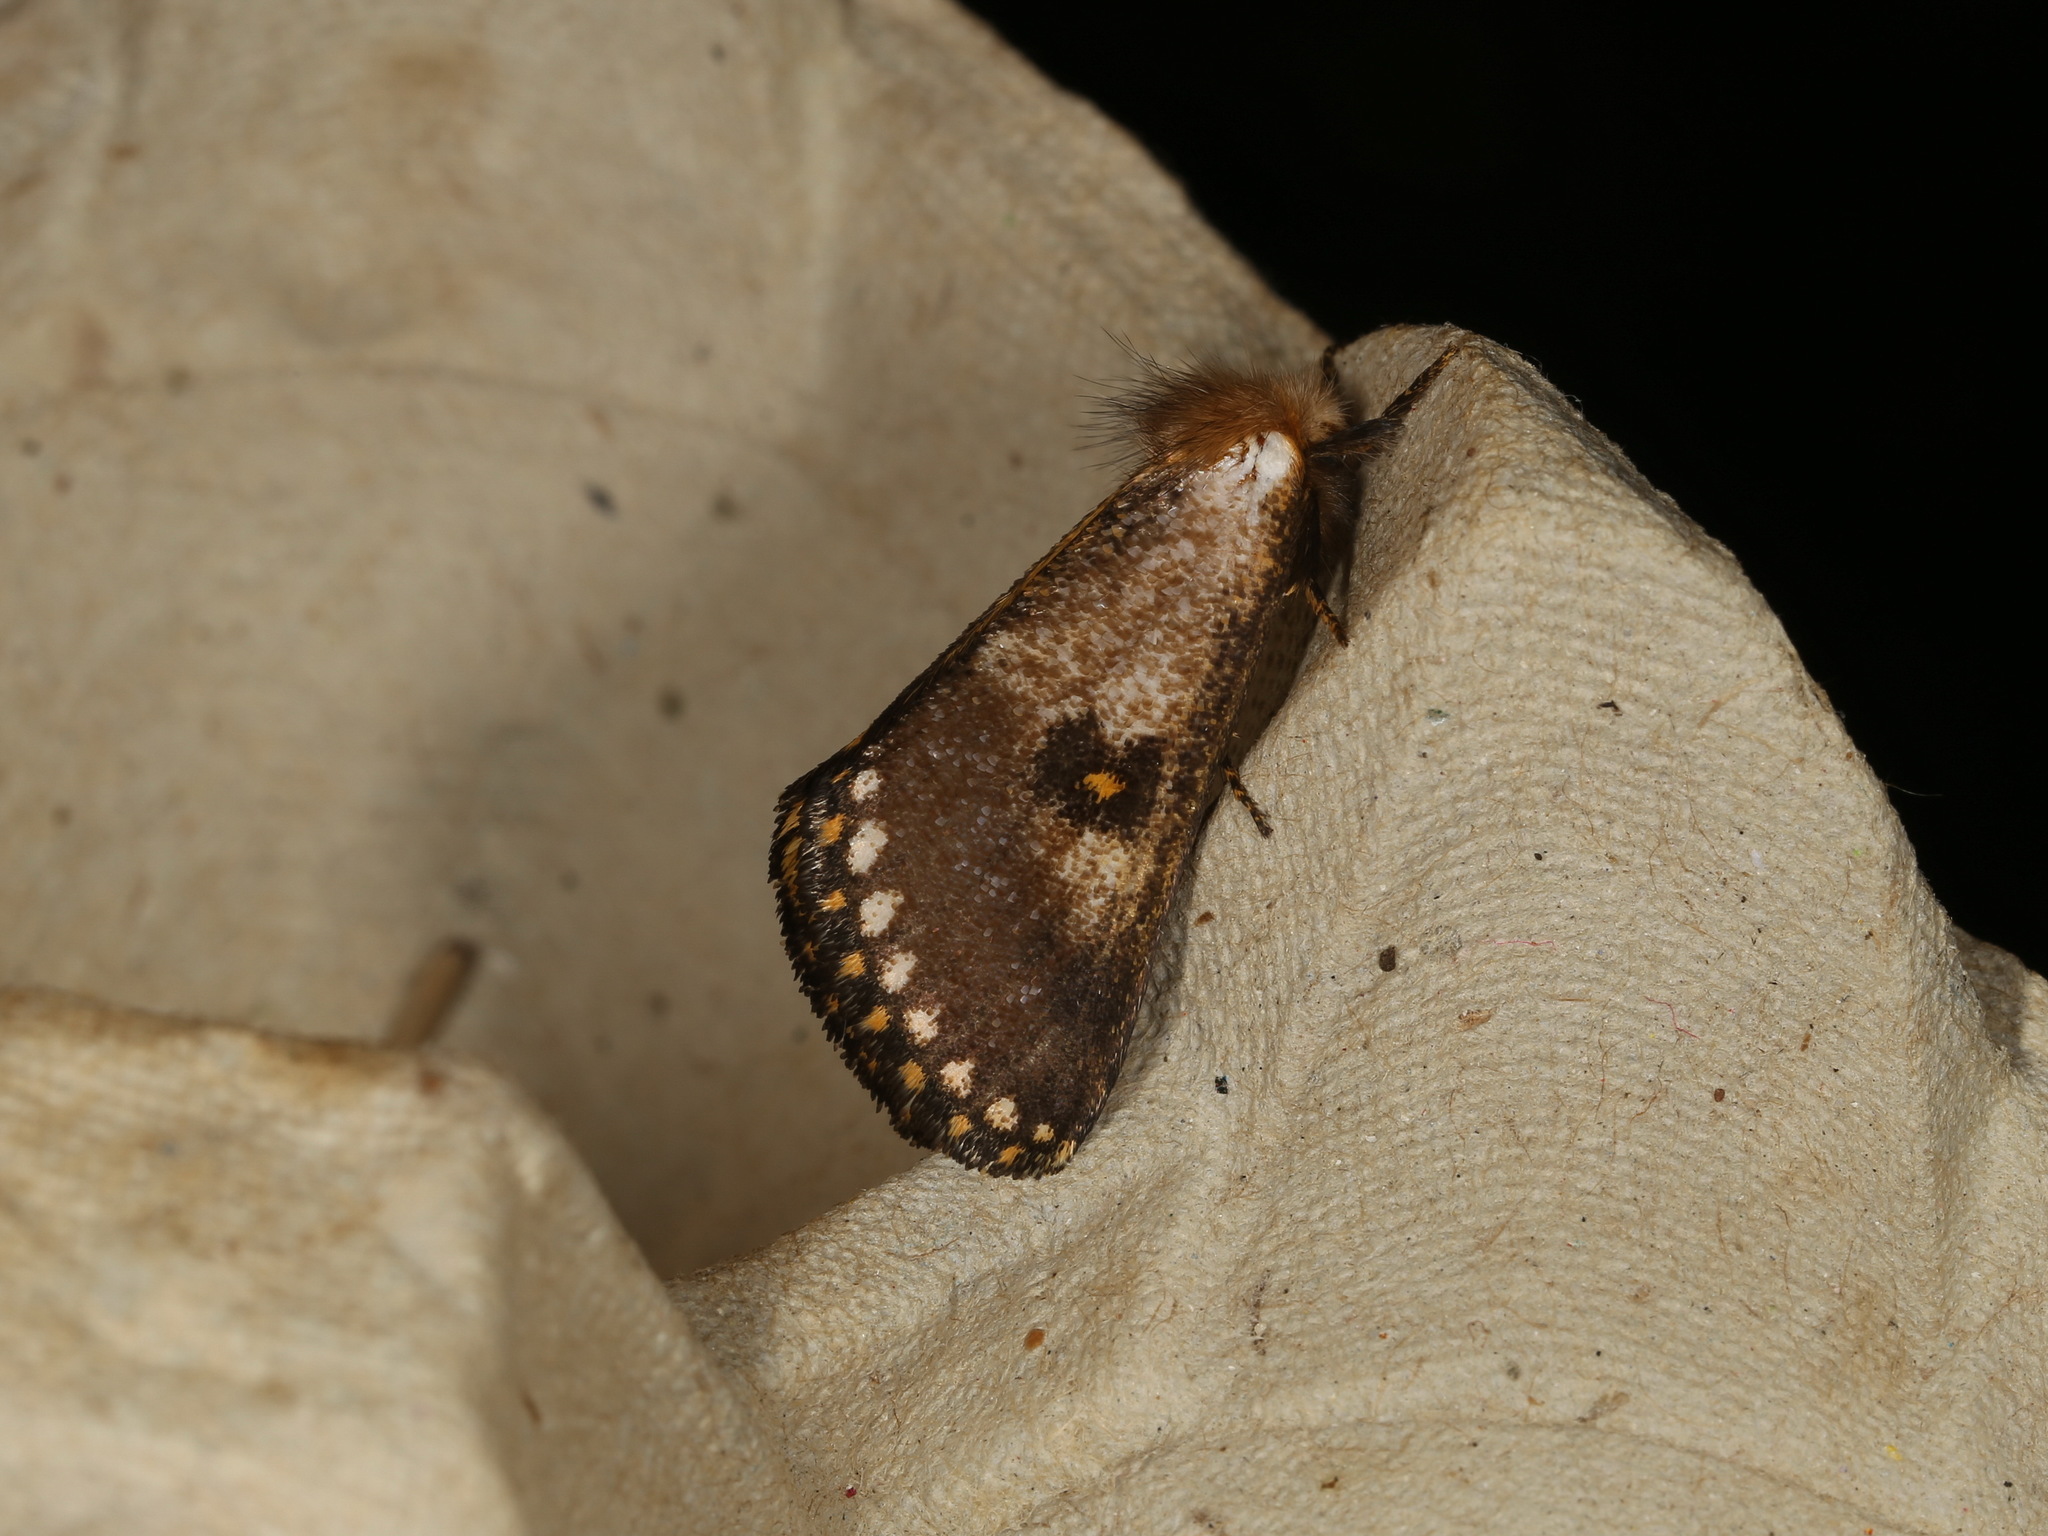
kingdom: Animalia
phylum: Arthropoda
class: Insecta
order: Lepidoptera
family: Notodontidae
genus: Epicoma
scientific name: Epicoma contristis
